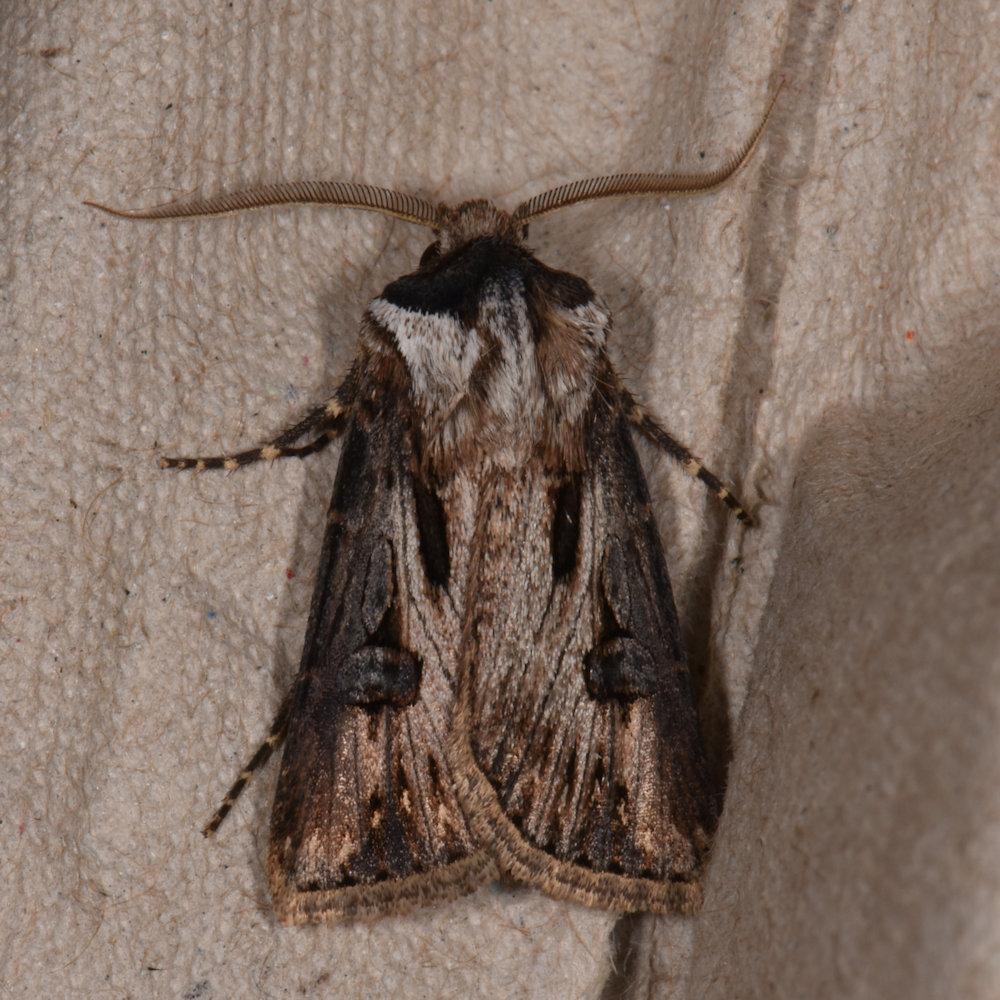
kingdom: Animalia
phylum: Arthropoda
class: Insecta
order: Lepidoptera
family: Noctuidae
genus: Agrotis
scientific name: Agrotis venerabilis
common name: Venerable dart
